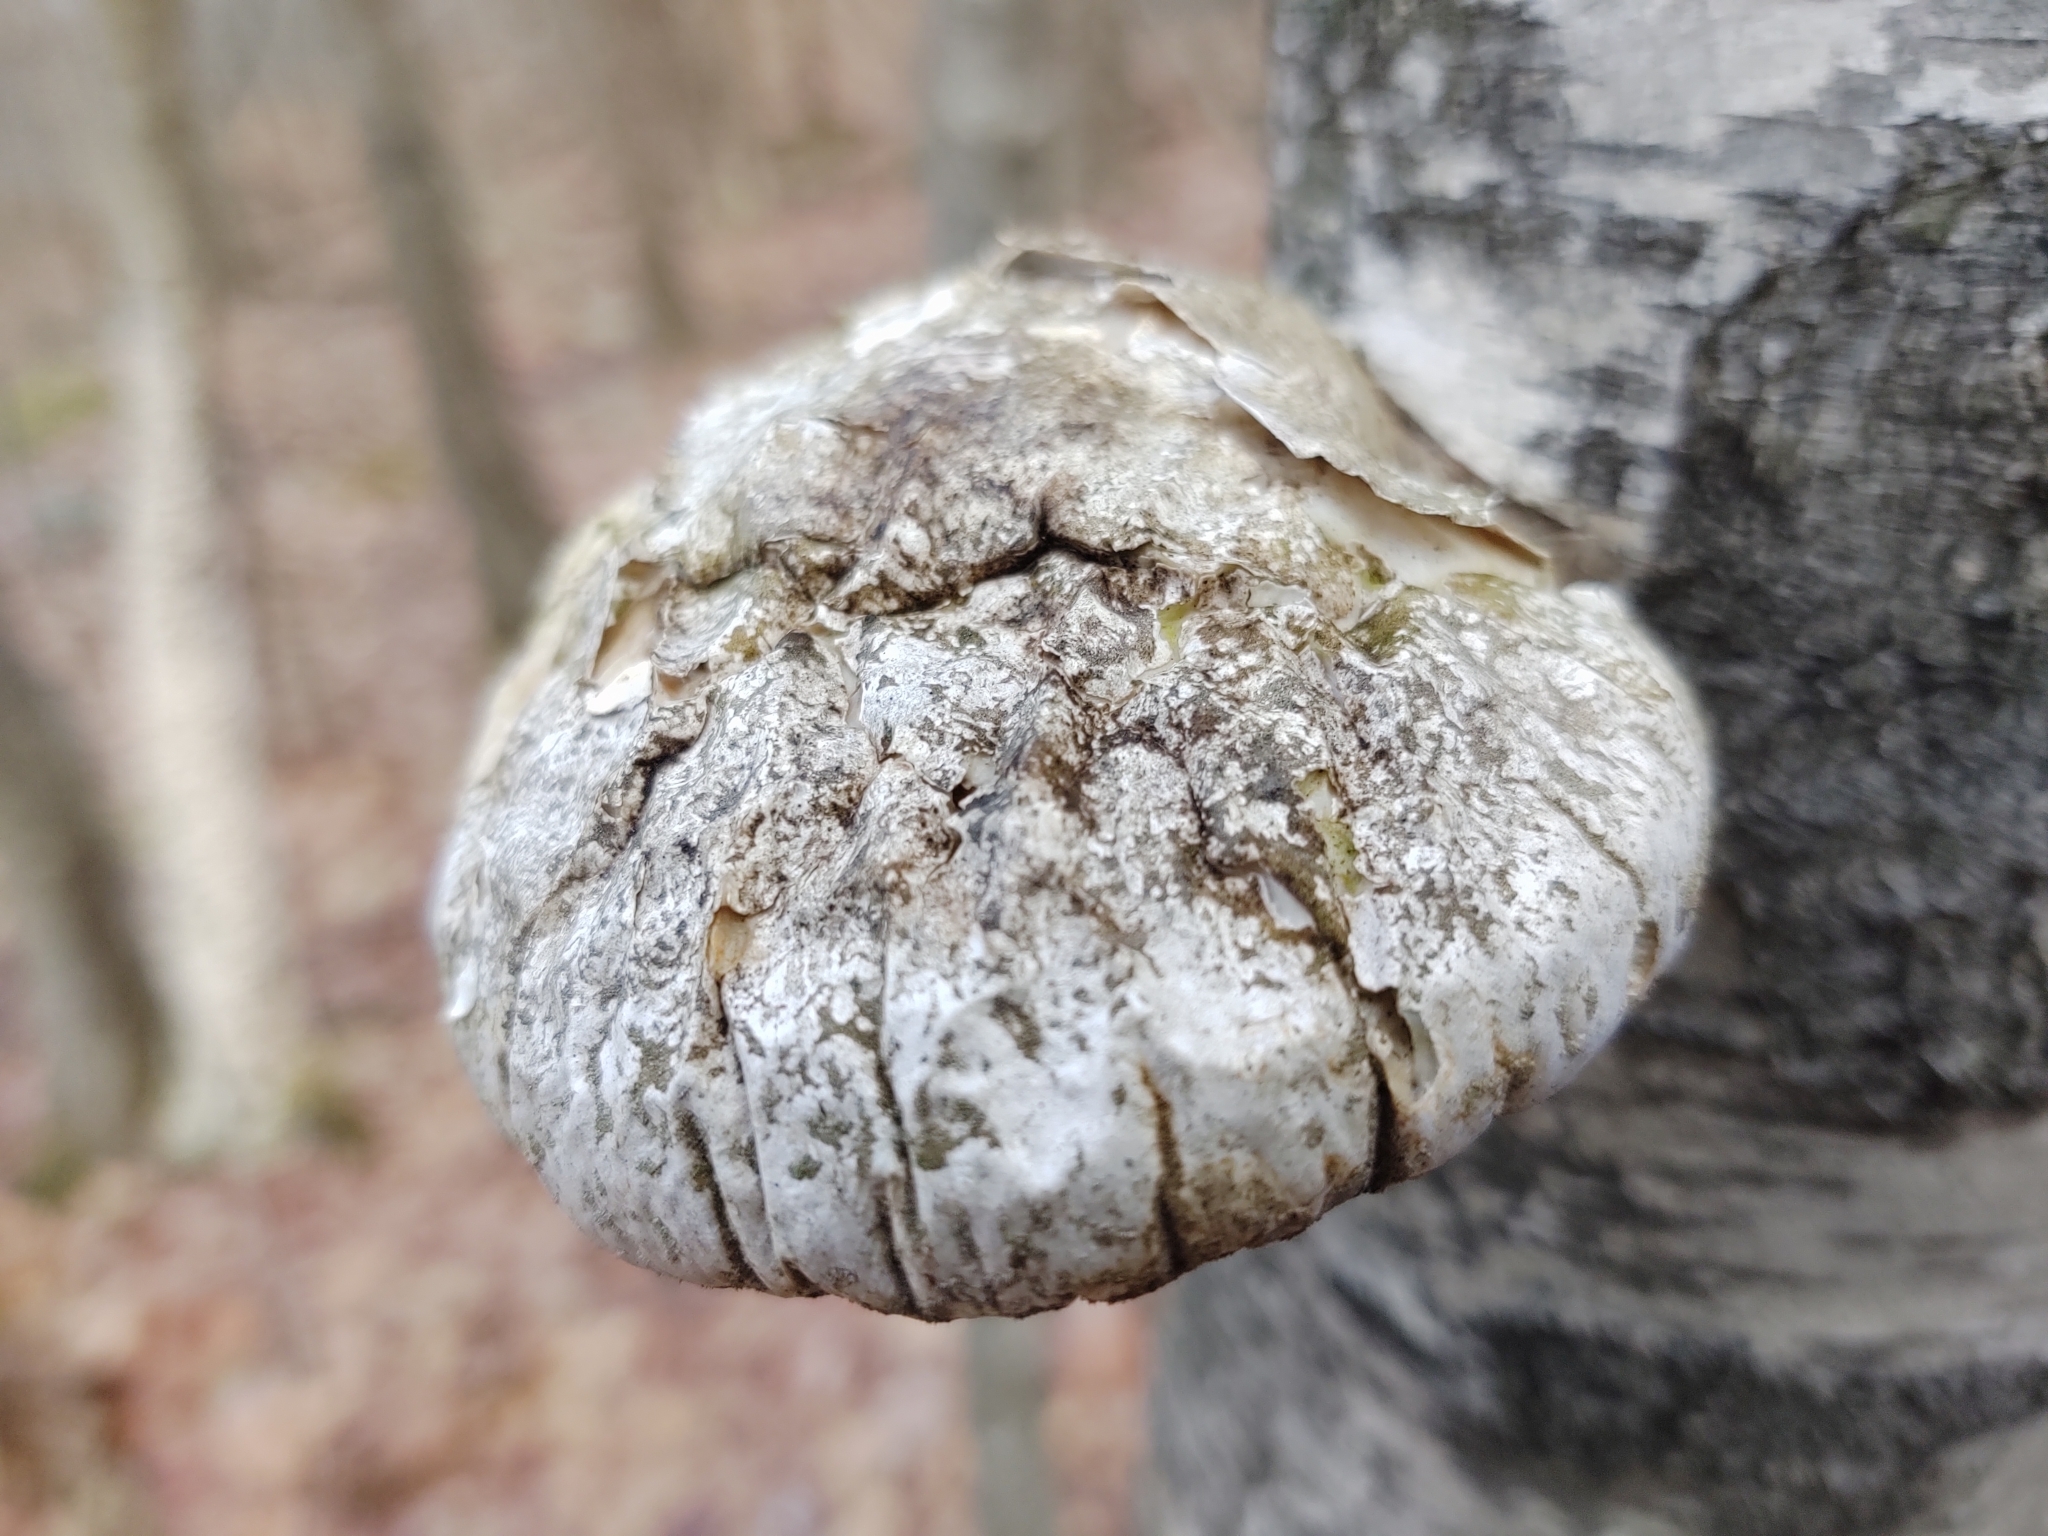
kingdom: Fungi
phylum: Basidiomycota
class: Agaricomycetes
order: Polyporales
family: Fomitopsidaceae
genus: Fomitopsis
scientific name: Fomitopsis betulina
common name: Birch polypore
